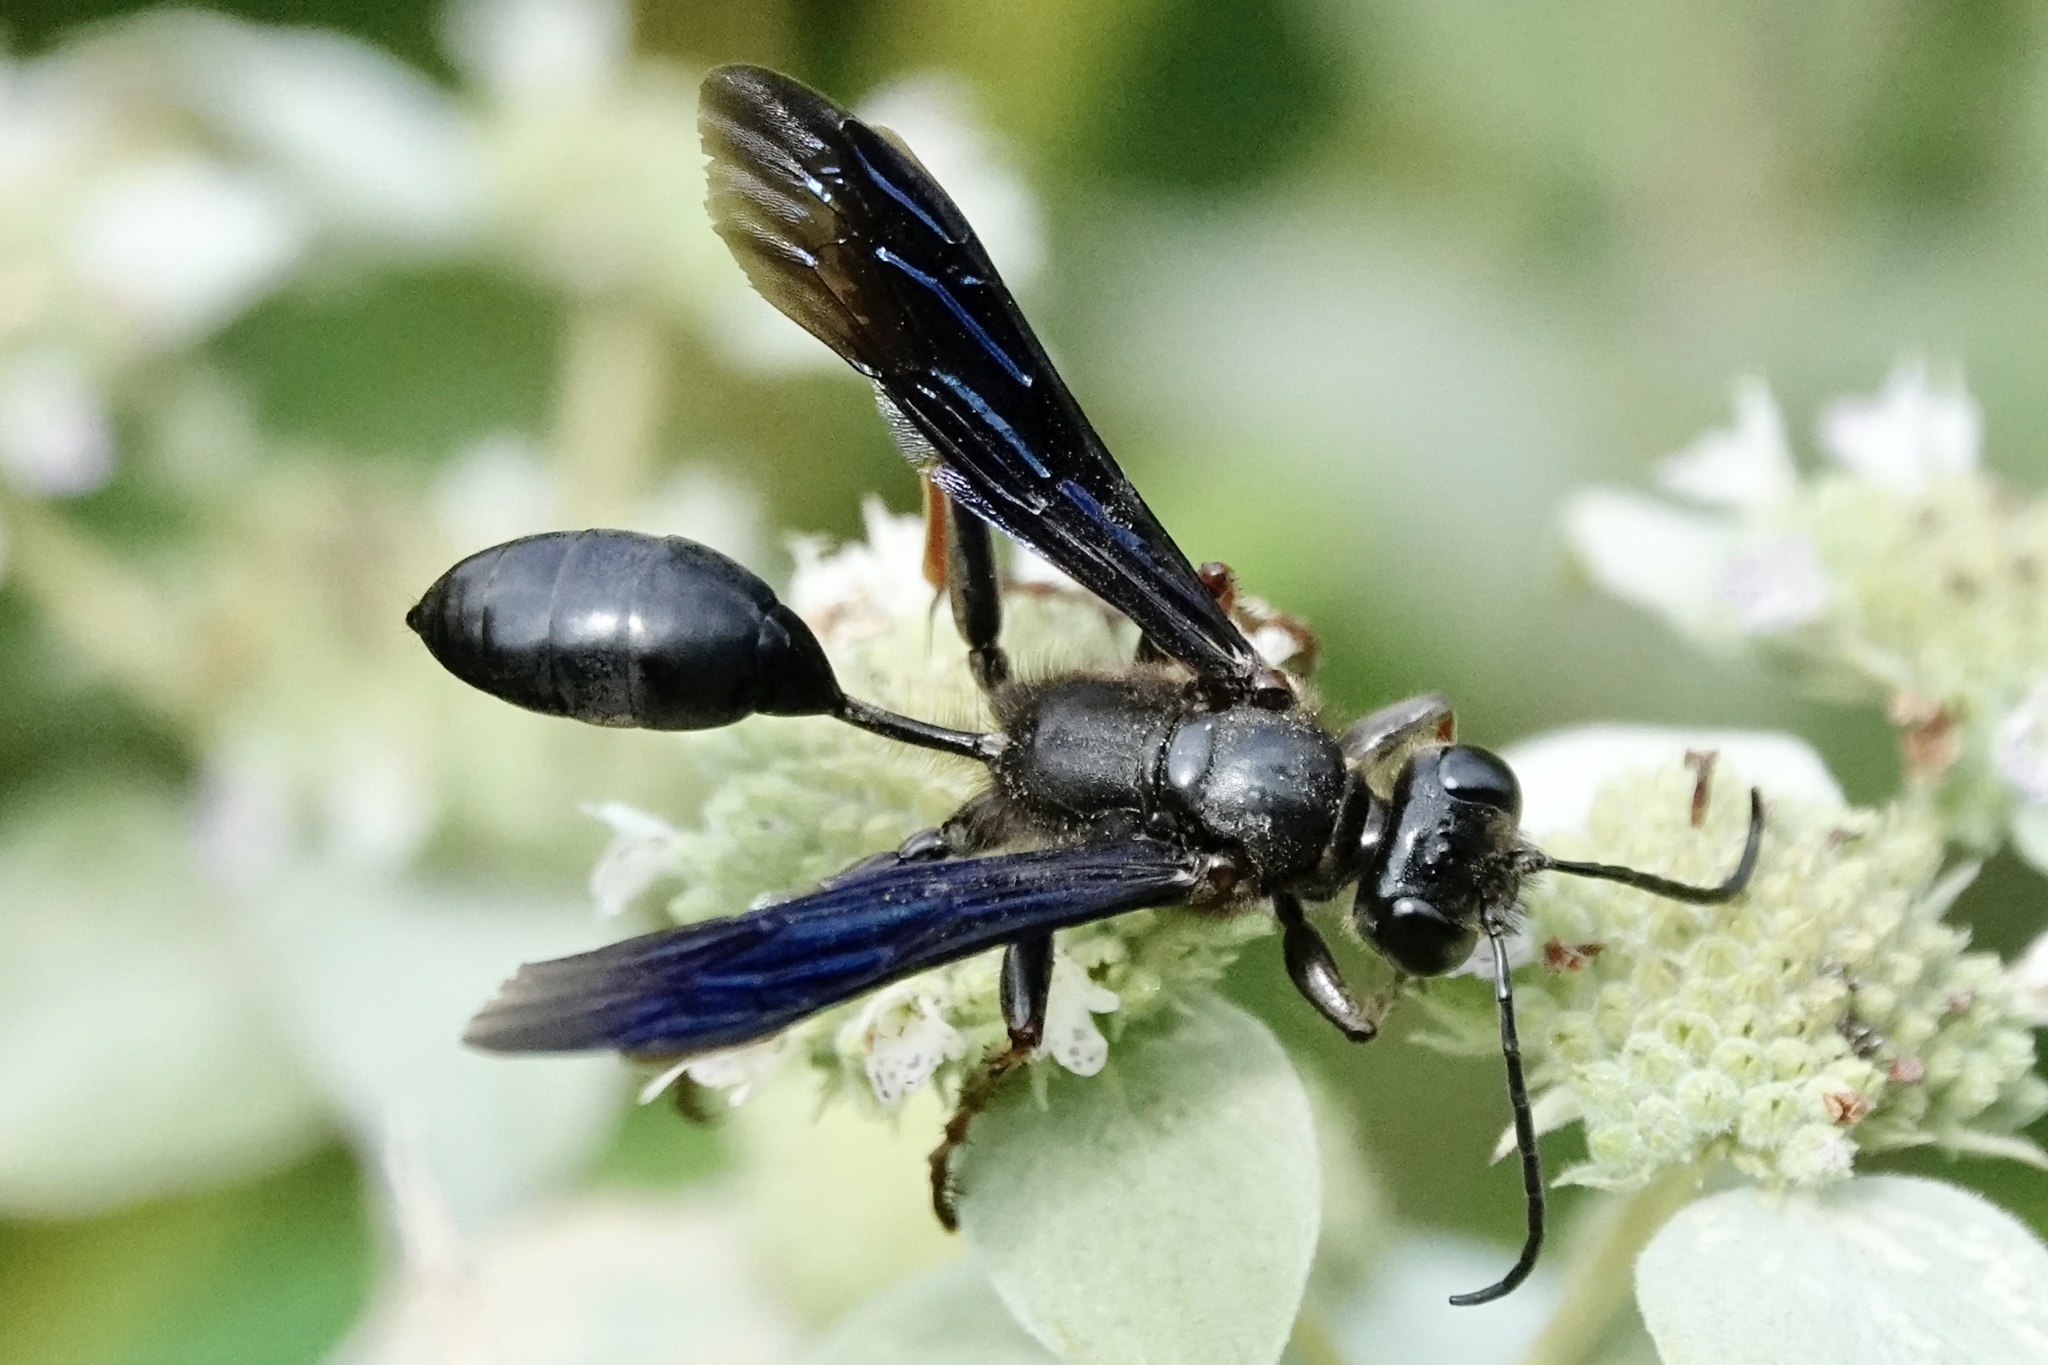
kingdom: Animalia
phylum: Arthropoda
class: Insecta
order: Hymenoptera
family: Sphecidae
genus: Isodontia
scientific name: Isodontia auripes
